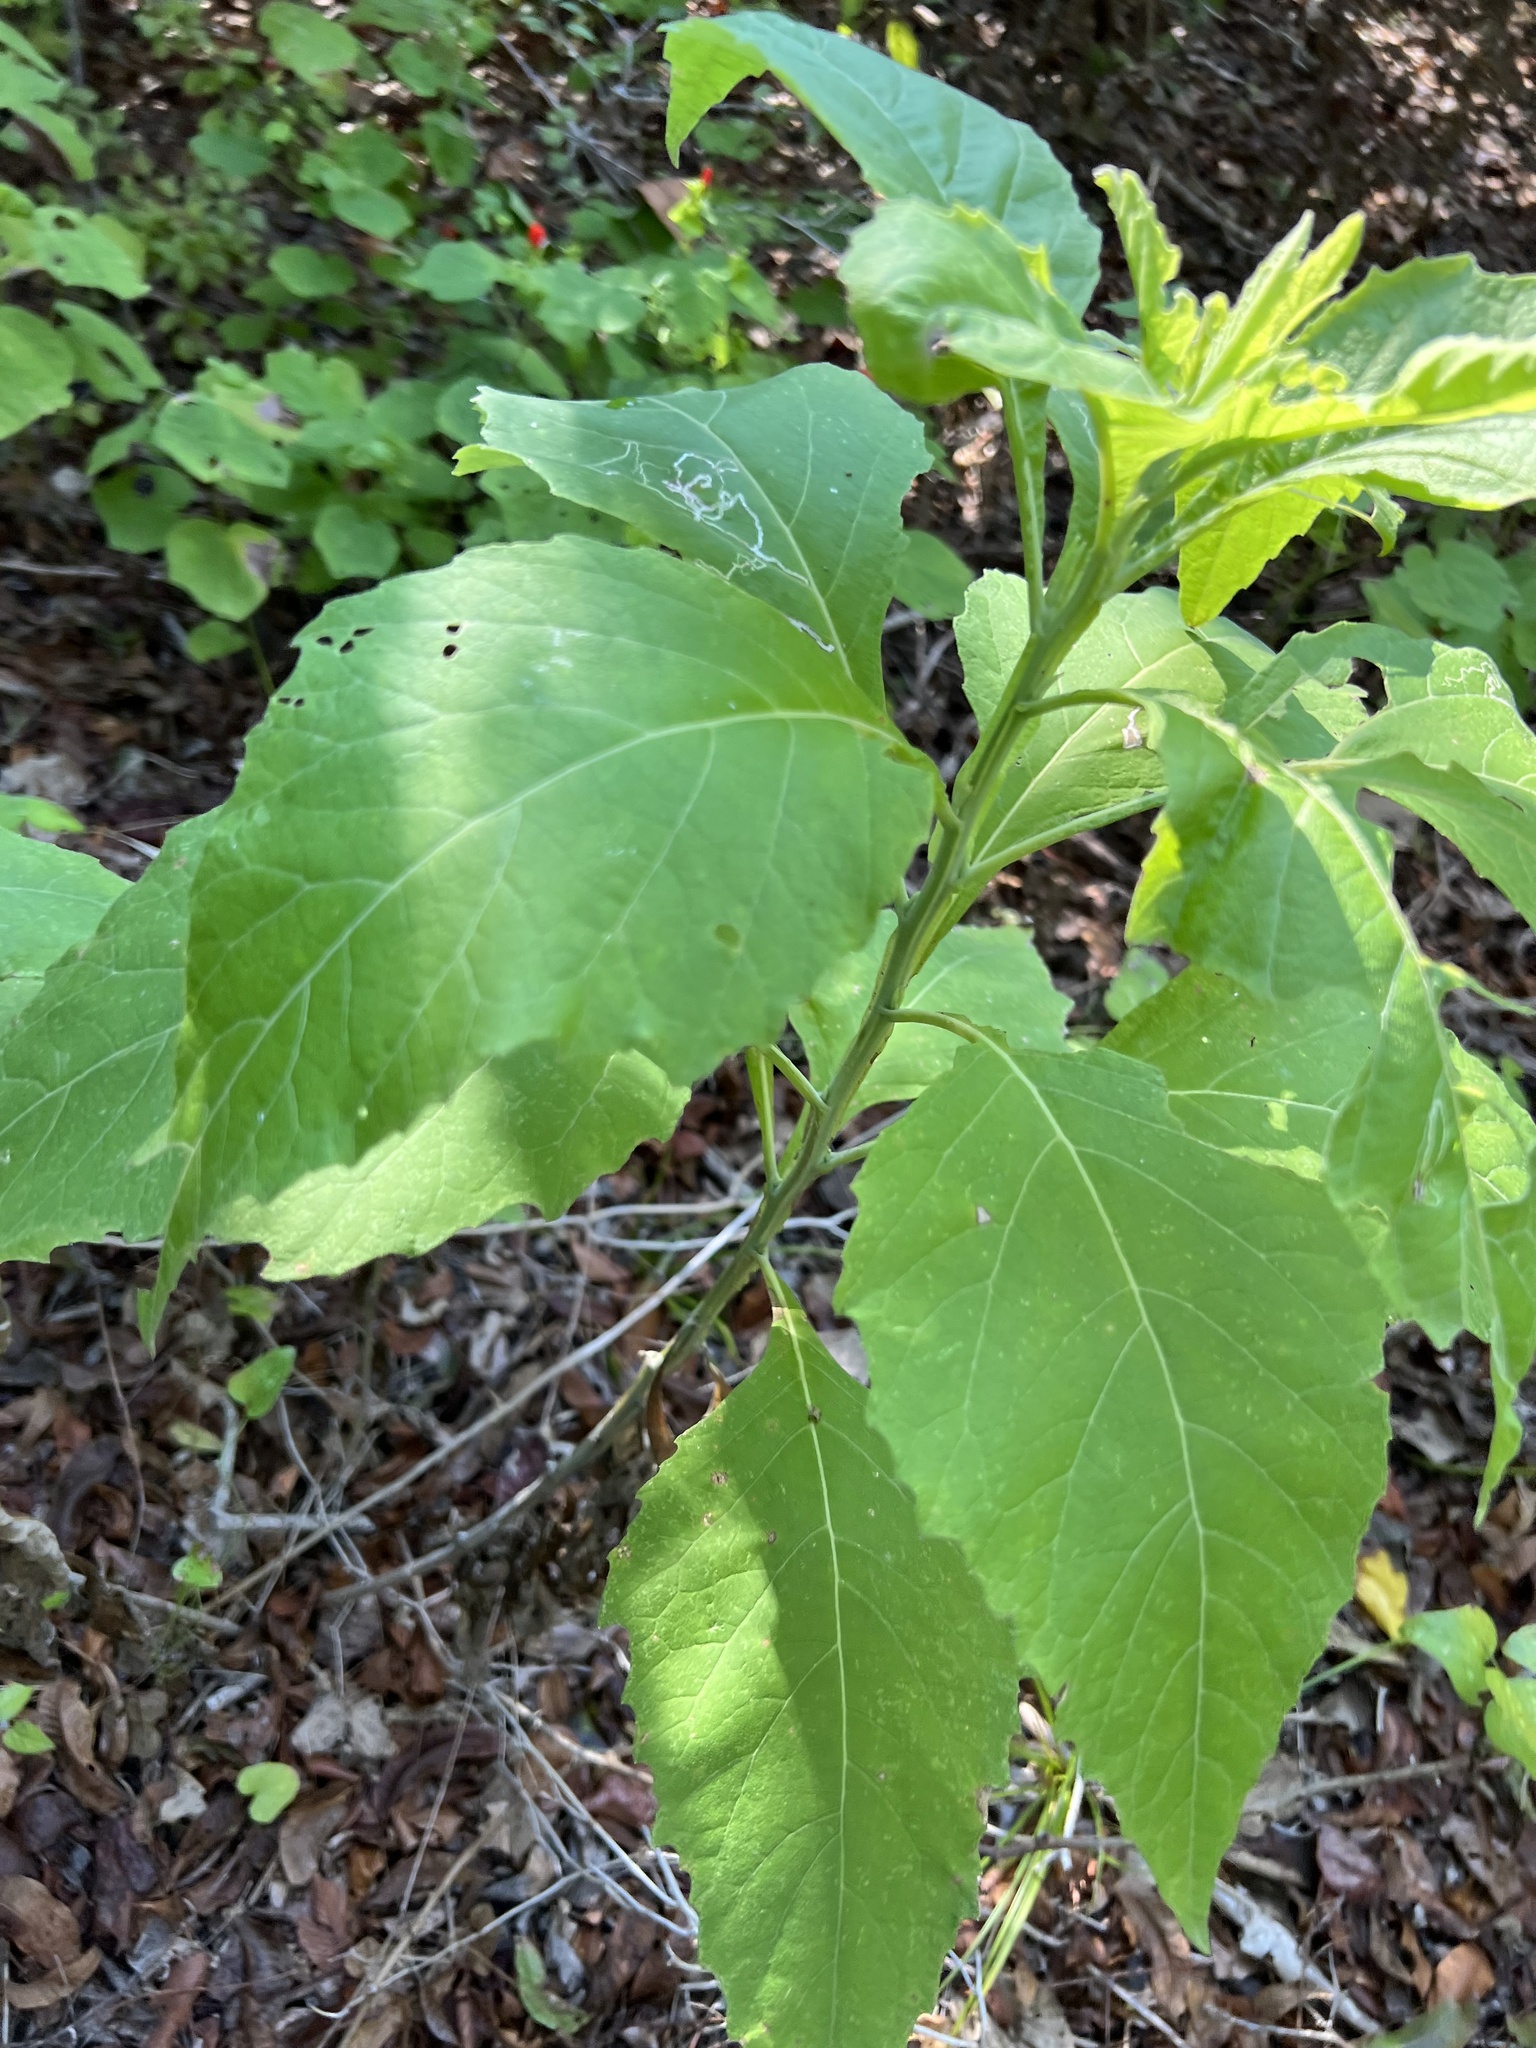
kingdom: Plantae
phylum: Tracheophyta
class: Magnoliopsida
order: Asterales
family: Asteraceae
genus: Verbesina
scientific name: Verbesina virginica
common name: Frostweed
